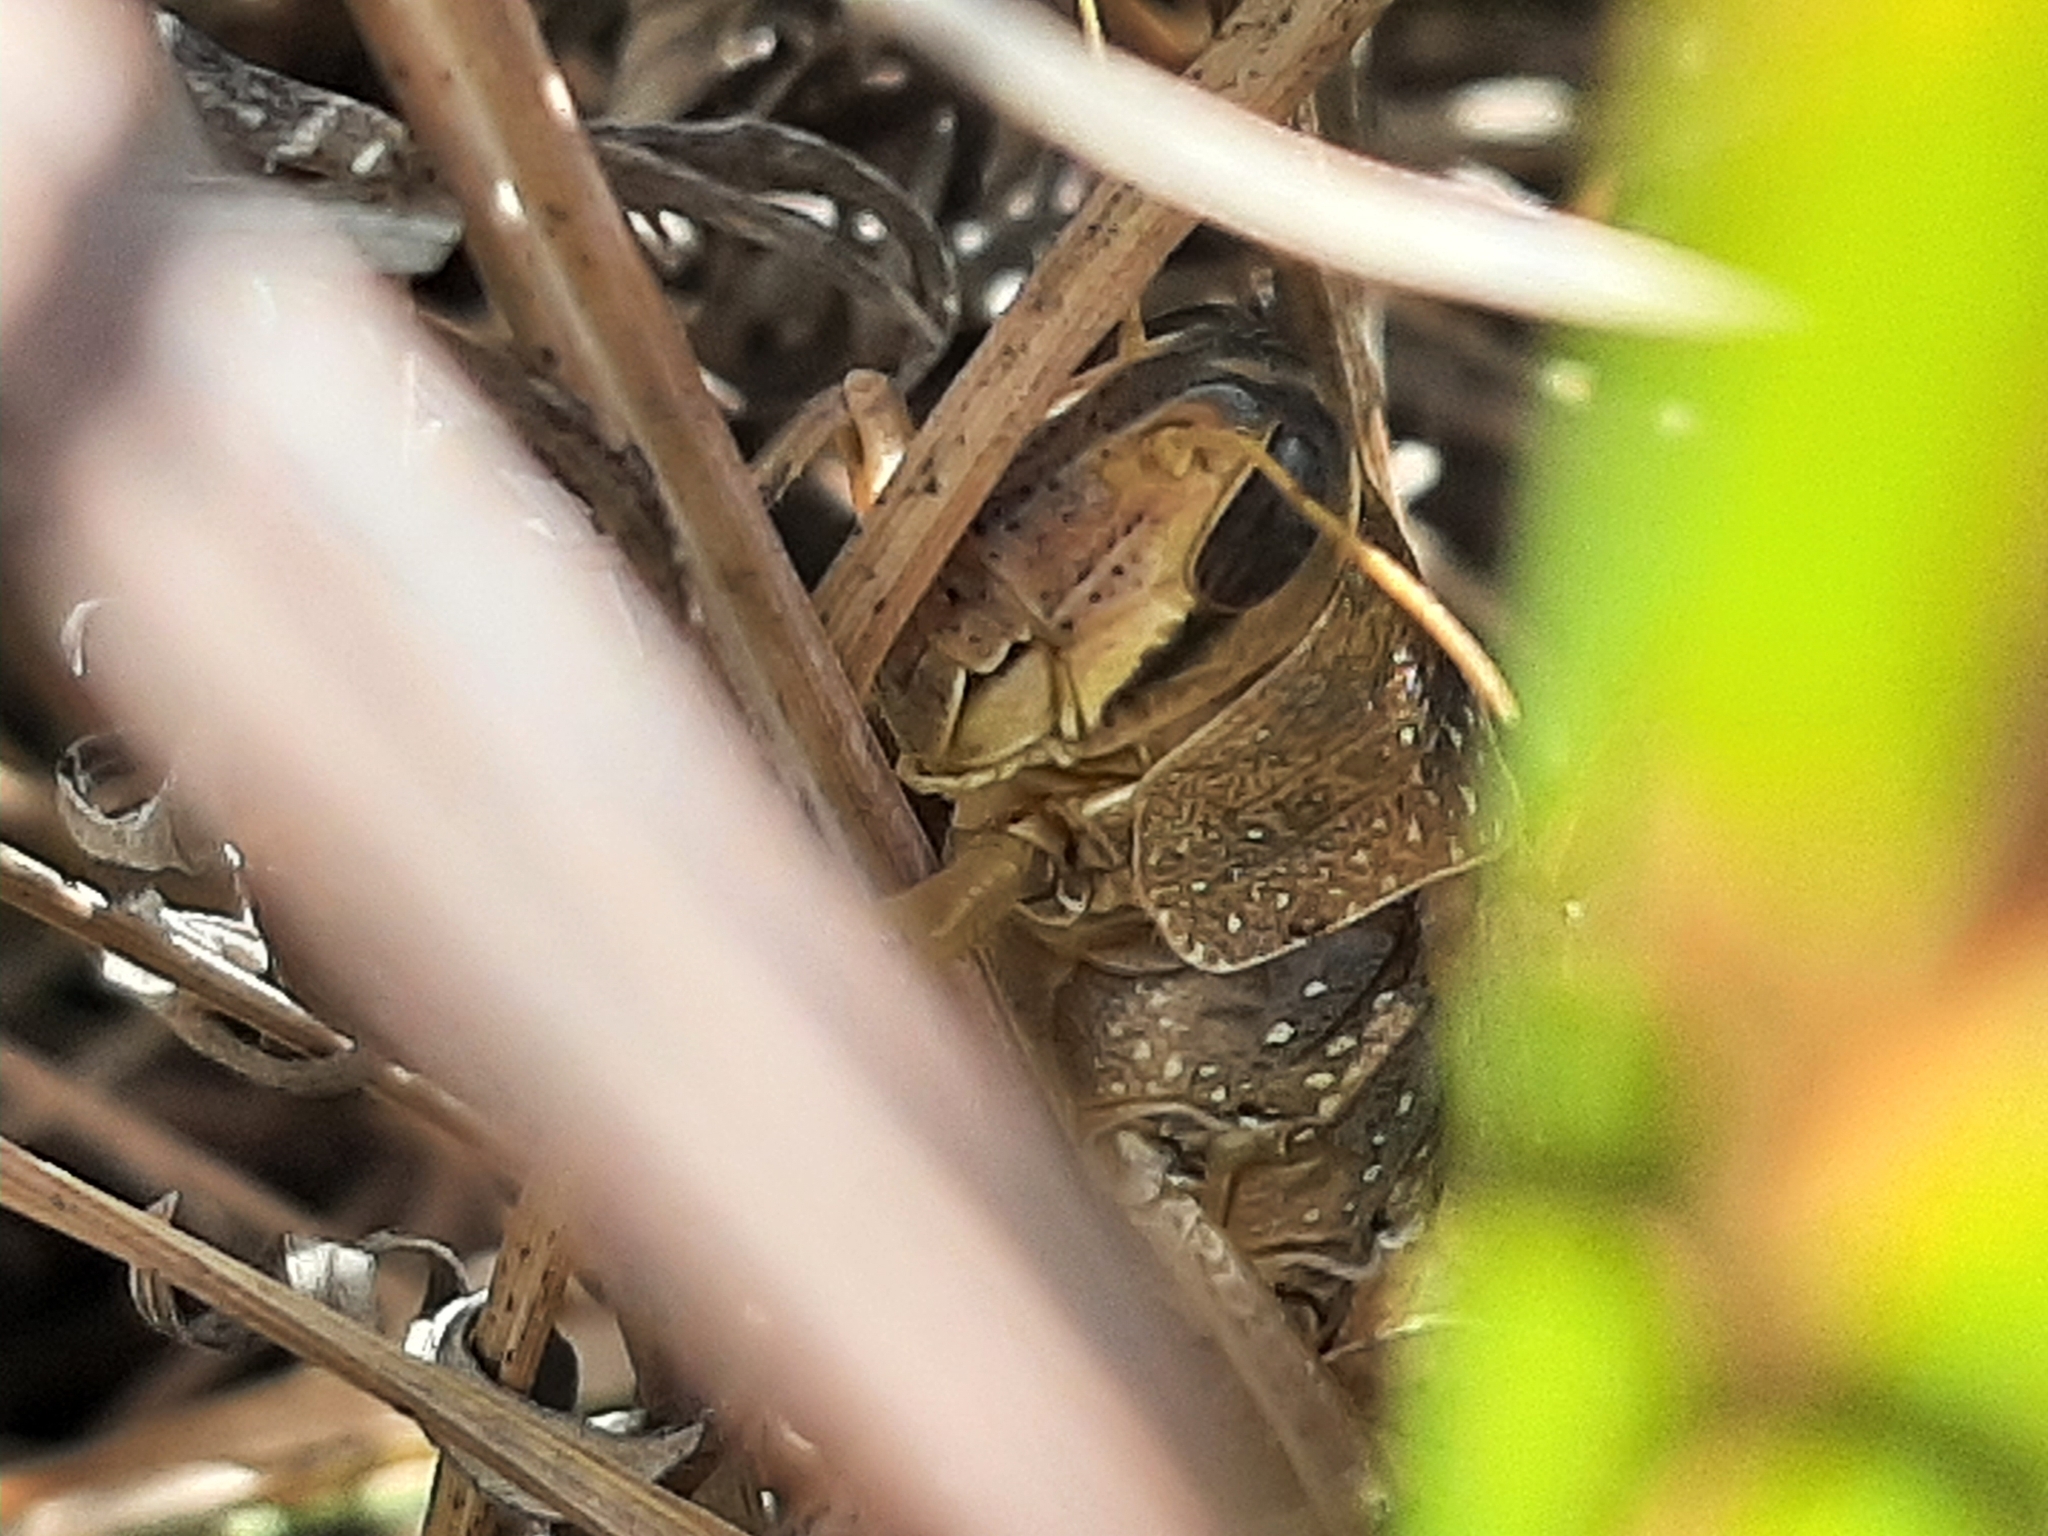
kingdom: Animalia
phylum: Arthropoda
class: Insecta
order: Orthoptera
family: Acrididae
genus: Schistocerca
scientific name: Schistocerca lineata
